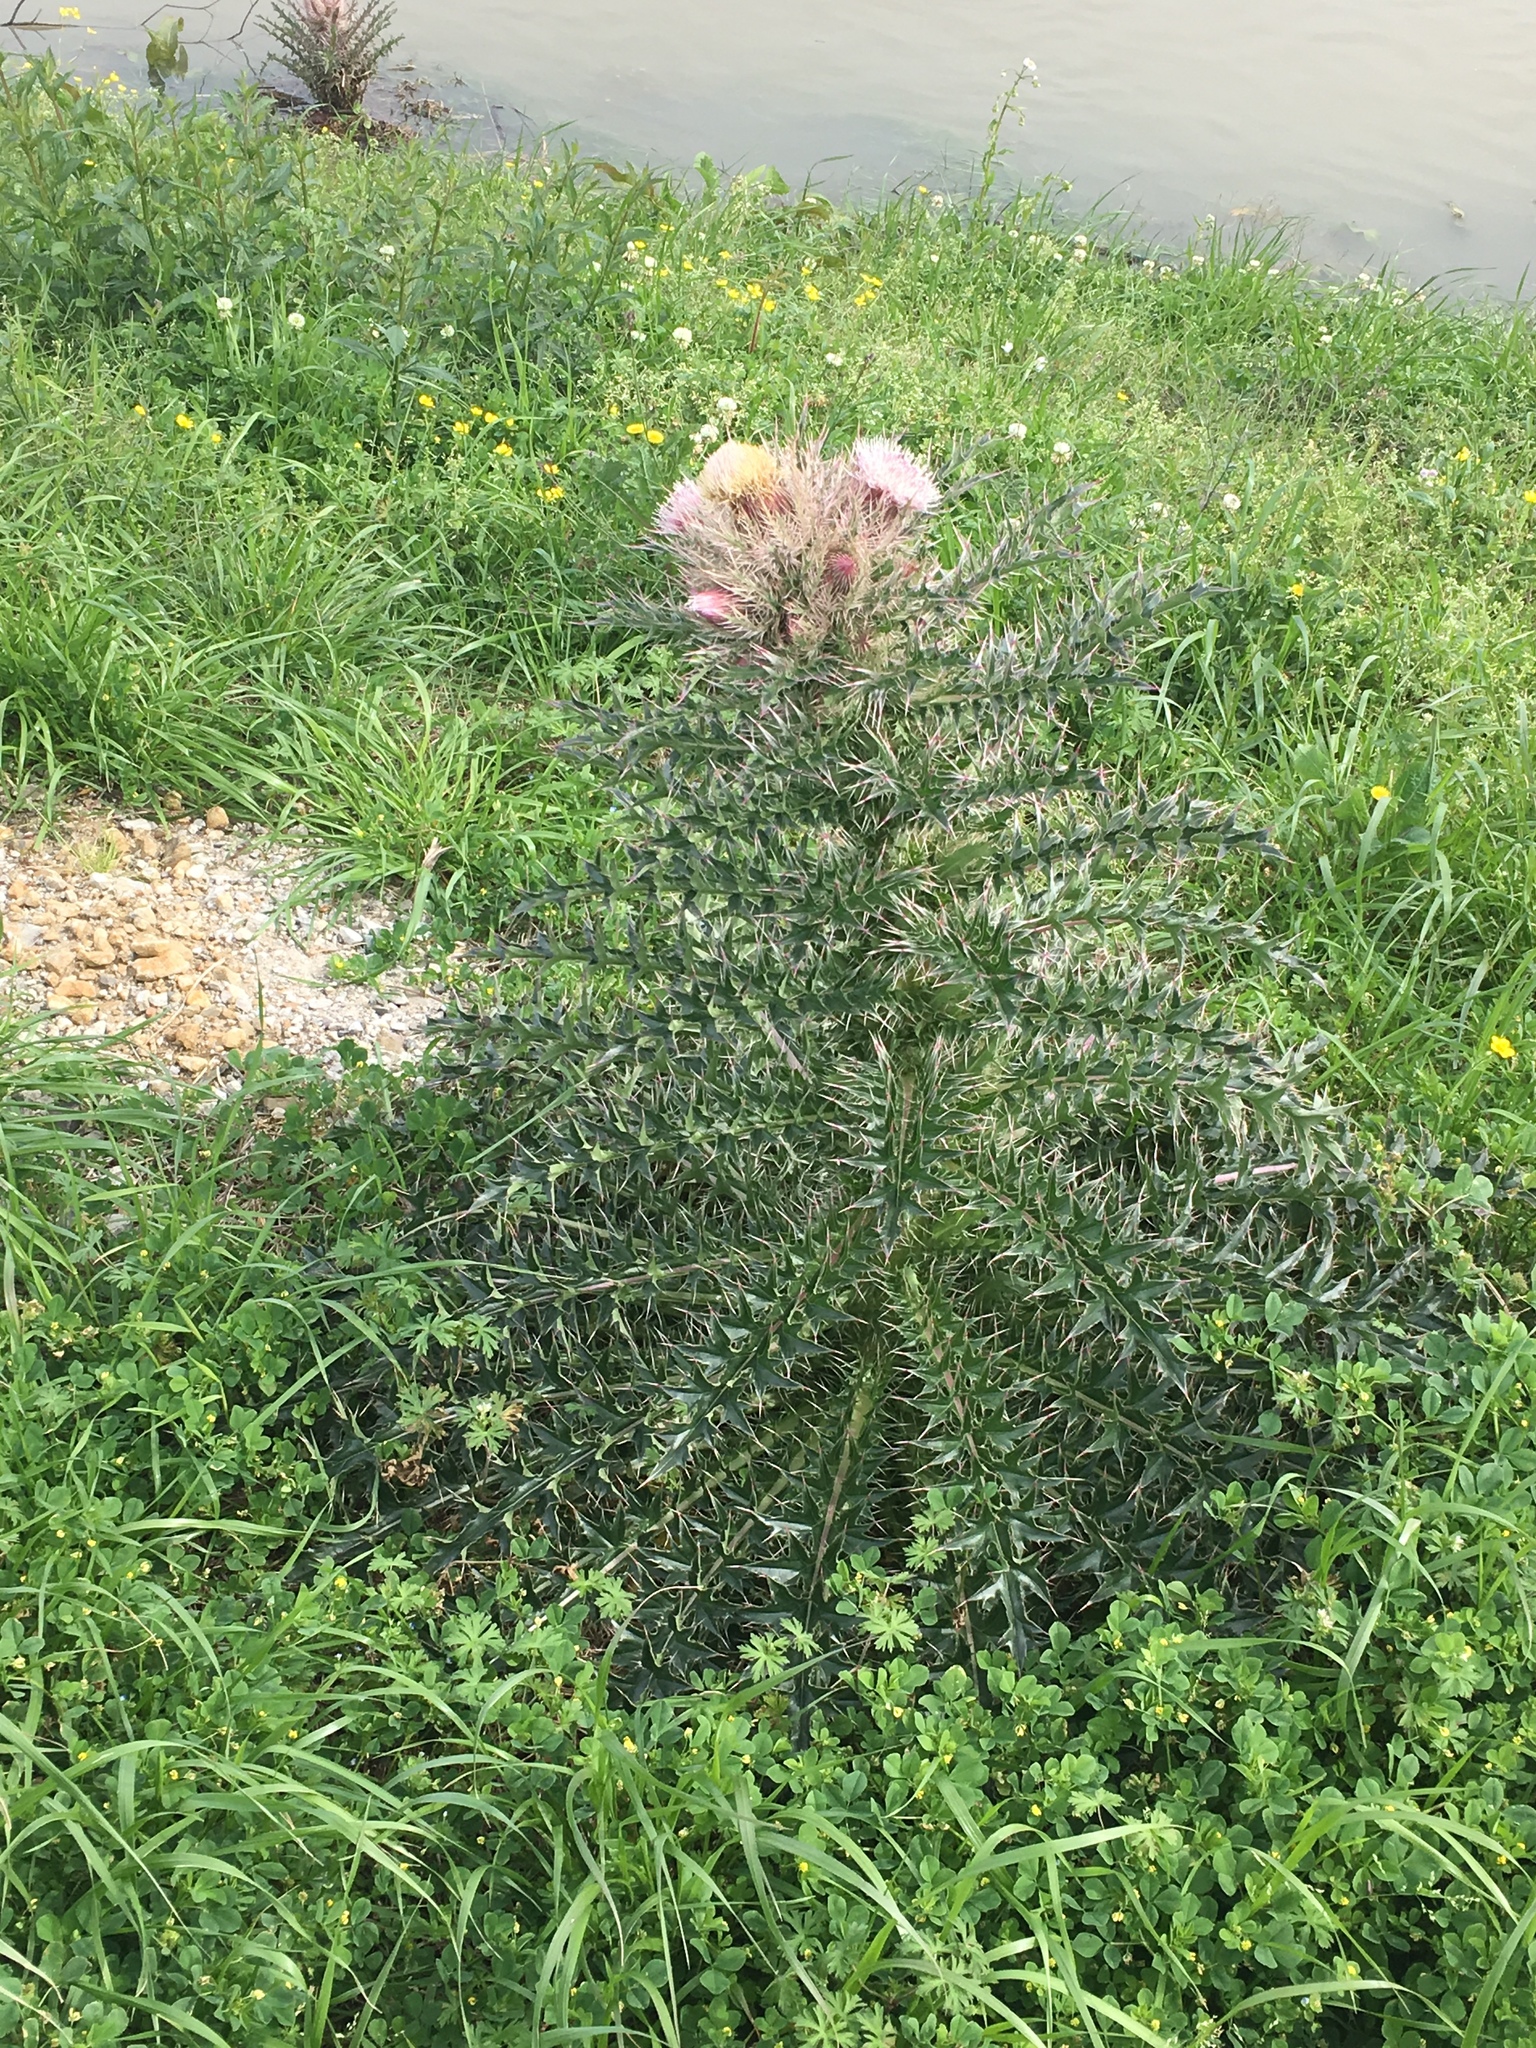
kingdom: Plantae
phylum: Tracheophyta
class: Magnoliopsida
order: Asterales
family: Asteraceae
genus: Cirsium
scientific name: Cirsium horridulum
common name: Bristly thistle
